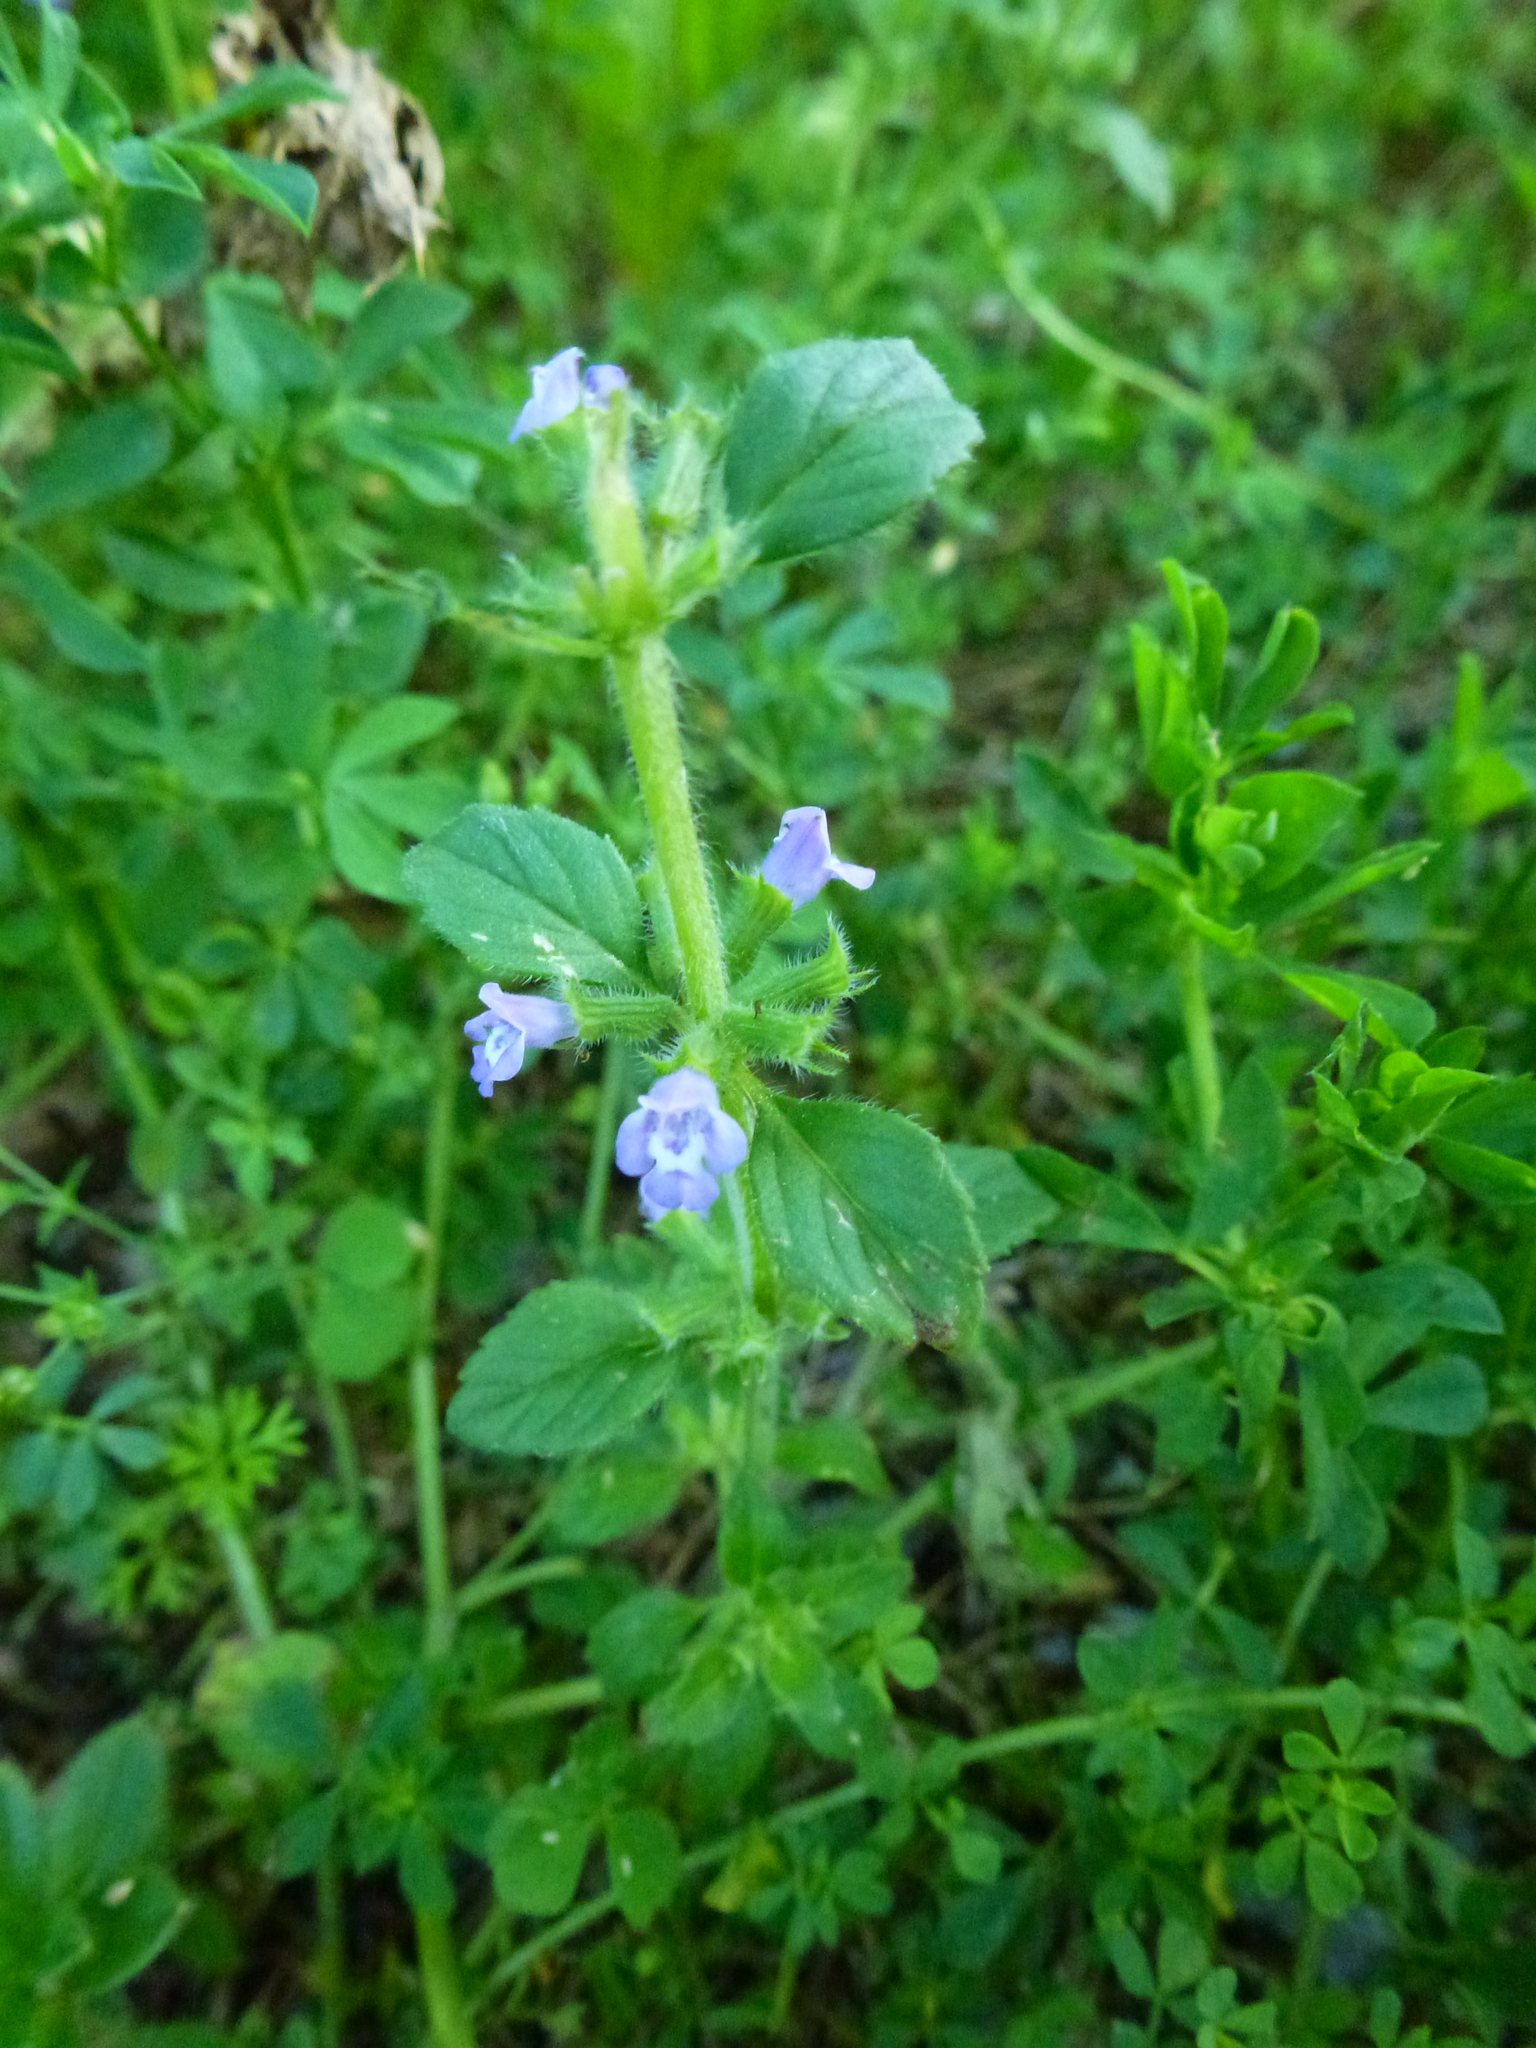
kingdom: Plantae
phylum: Tracheophyta
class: Magnoliopsida
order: Lamiales
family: Lamiaceae
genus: Clinopodium
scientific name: Clinopodium acinos
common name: Basil thyme
